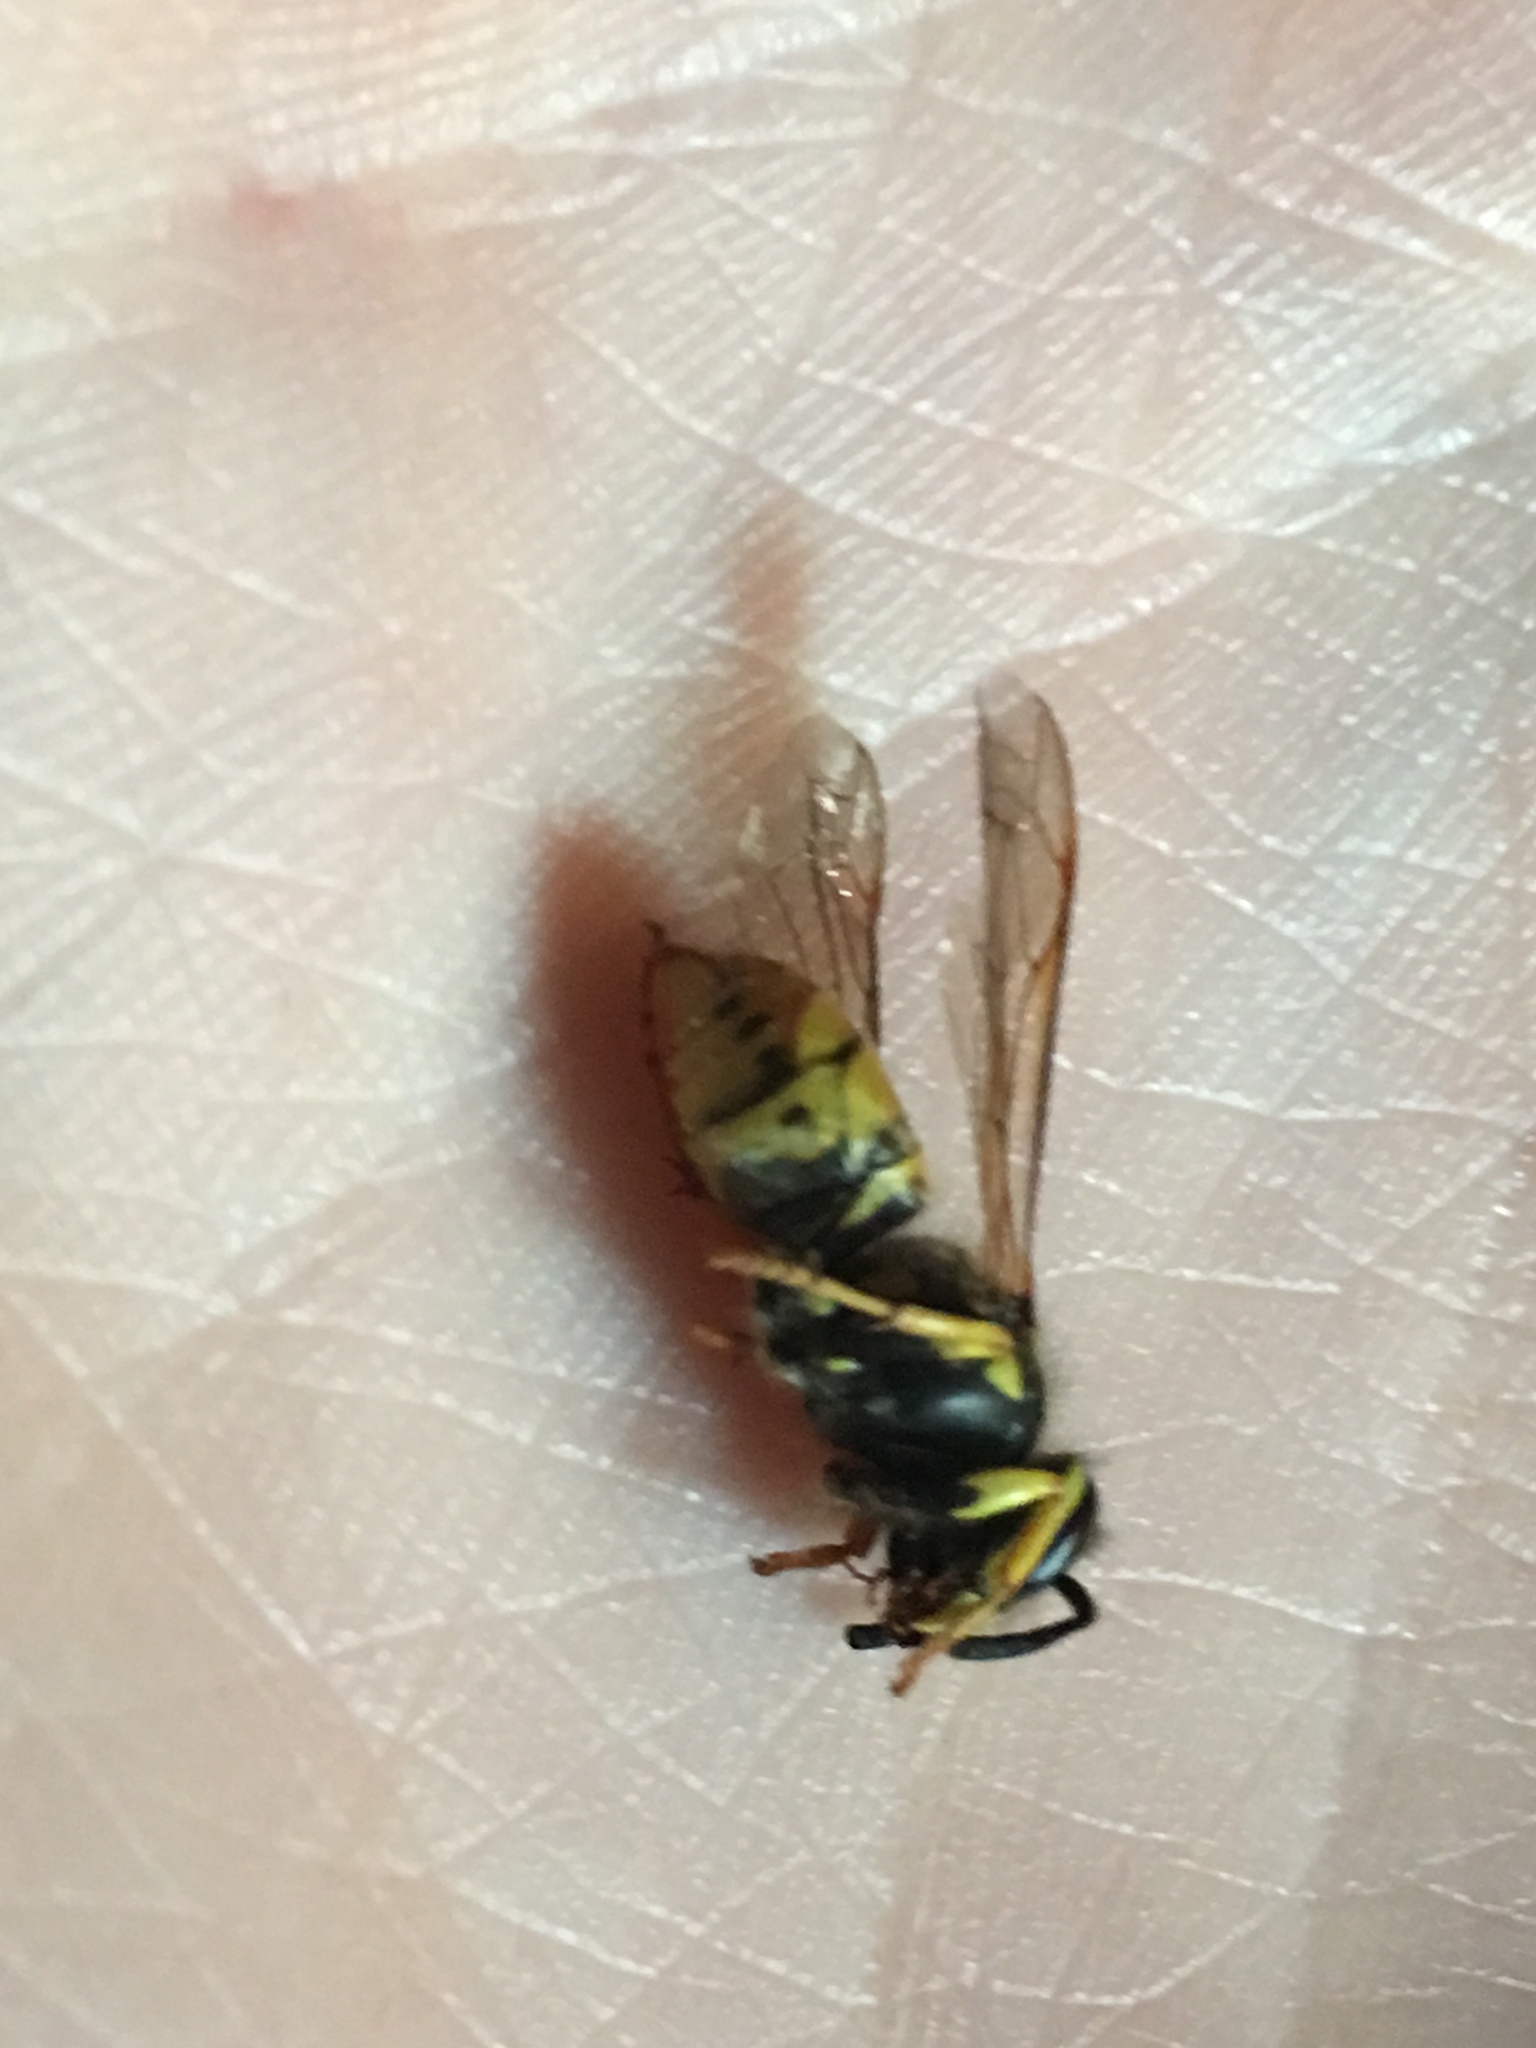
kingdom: Animalia
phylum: Arthropoda
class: Insecta
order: Hymenoptera
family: Vespidae
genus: Vespula
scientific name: Vespula germanica
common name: German wasp
